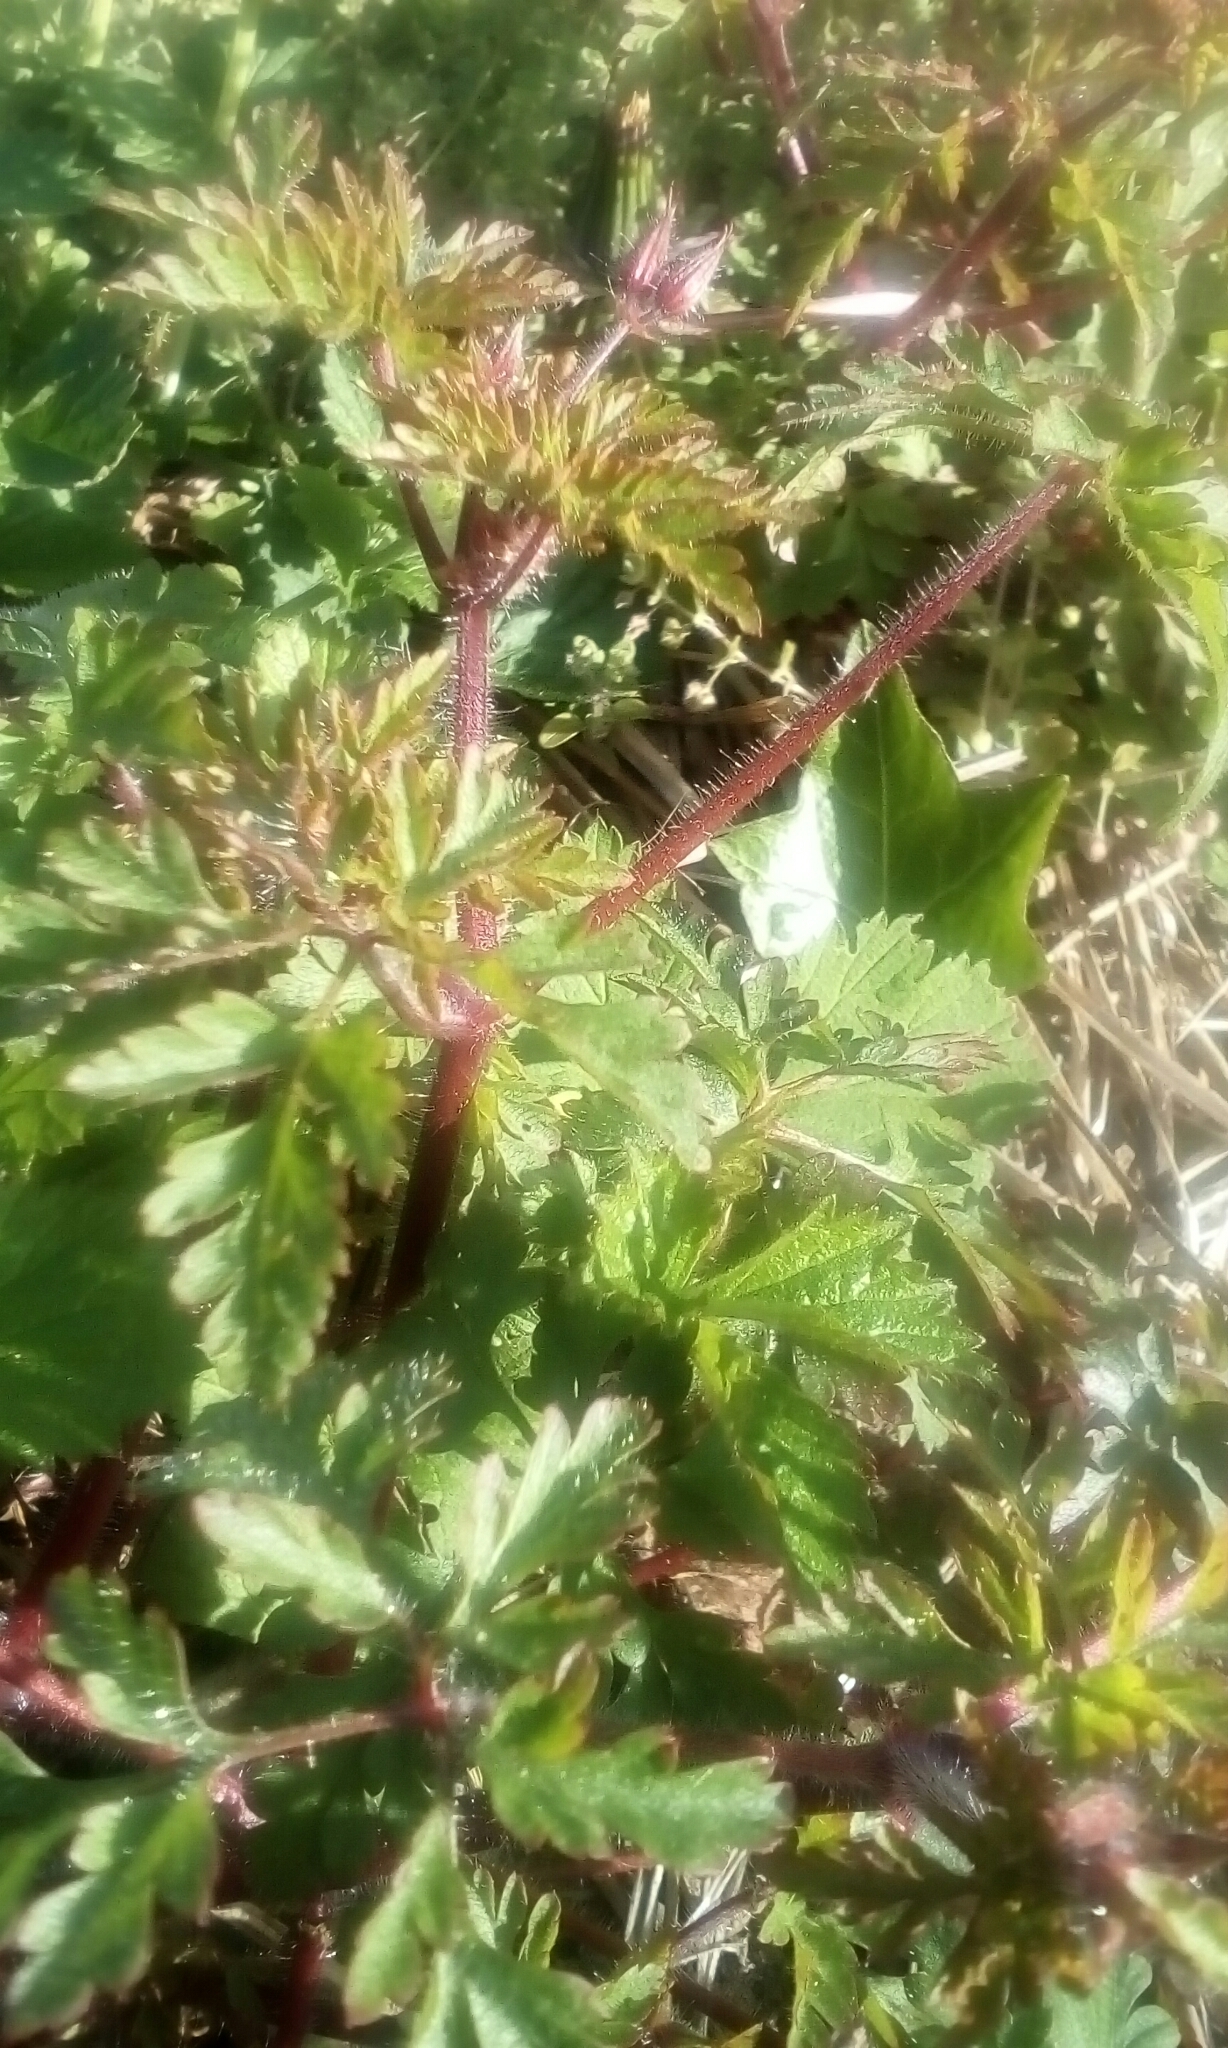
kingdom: Plantae
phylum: Tracheophyta
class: Magnoliopsida
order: Geraniales
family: Geraniaceae
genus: Geranium
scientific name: Geranium robertianum
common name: Herb-robert
